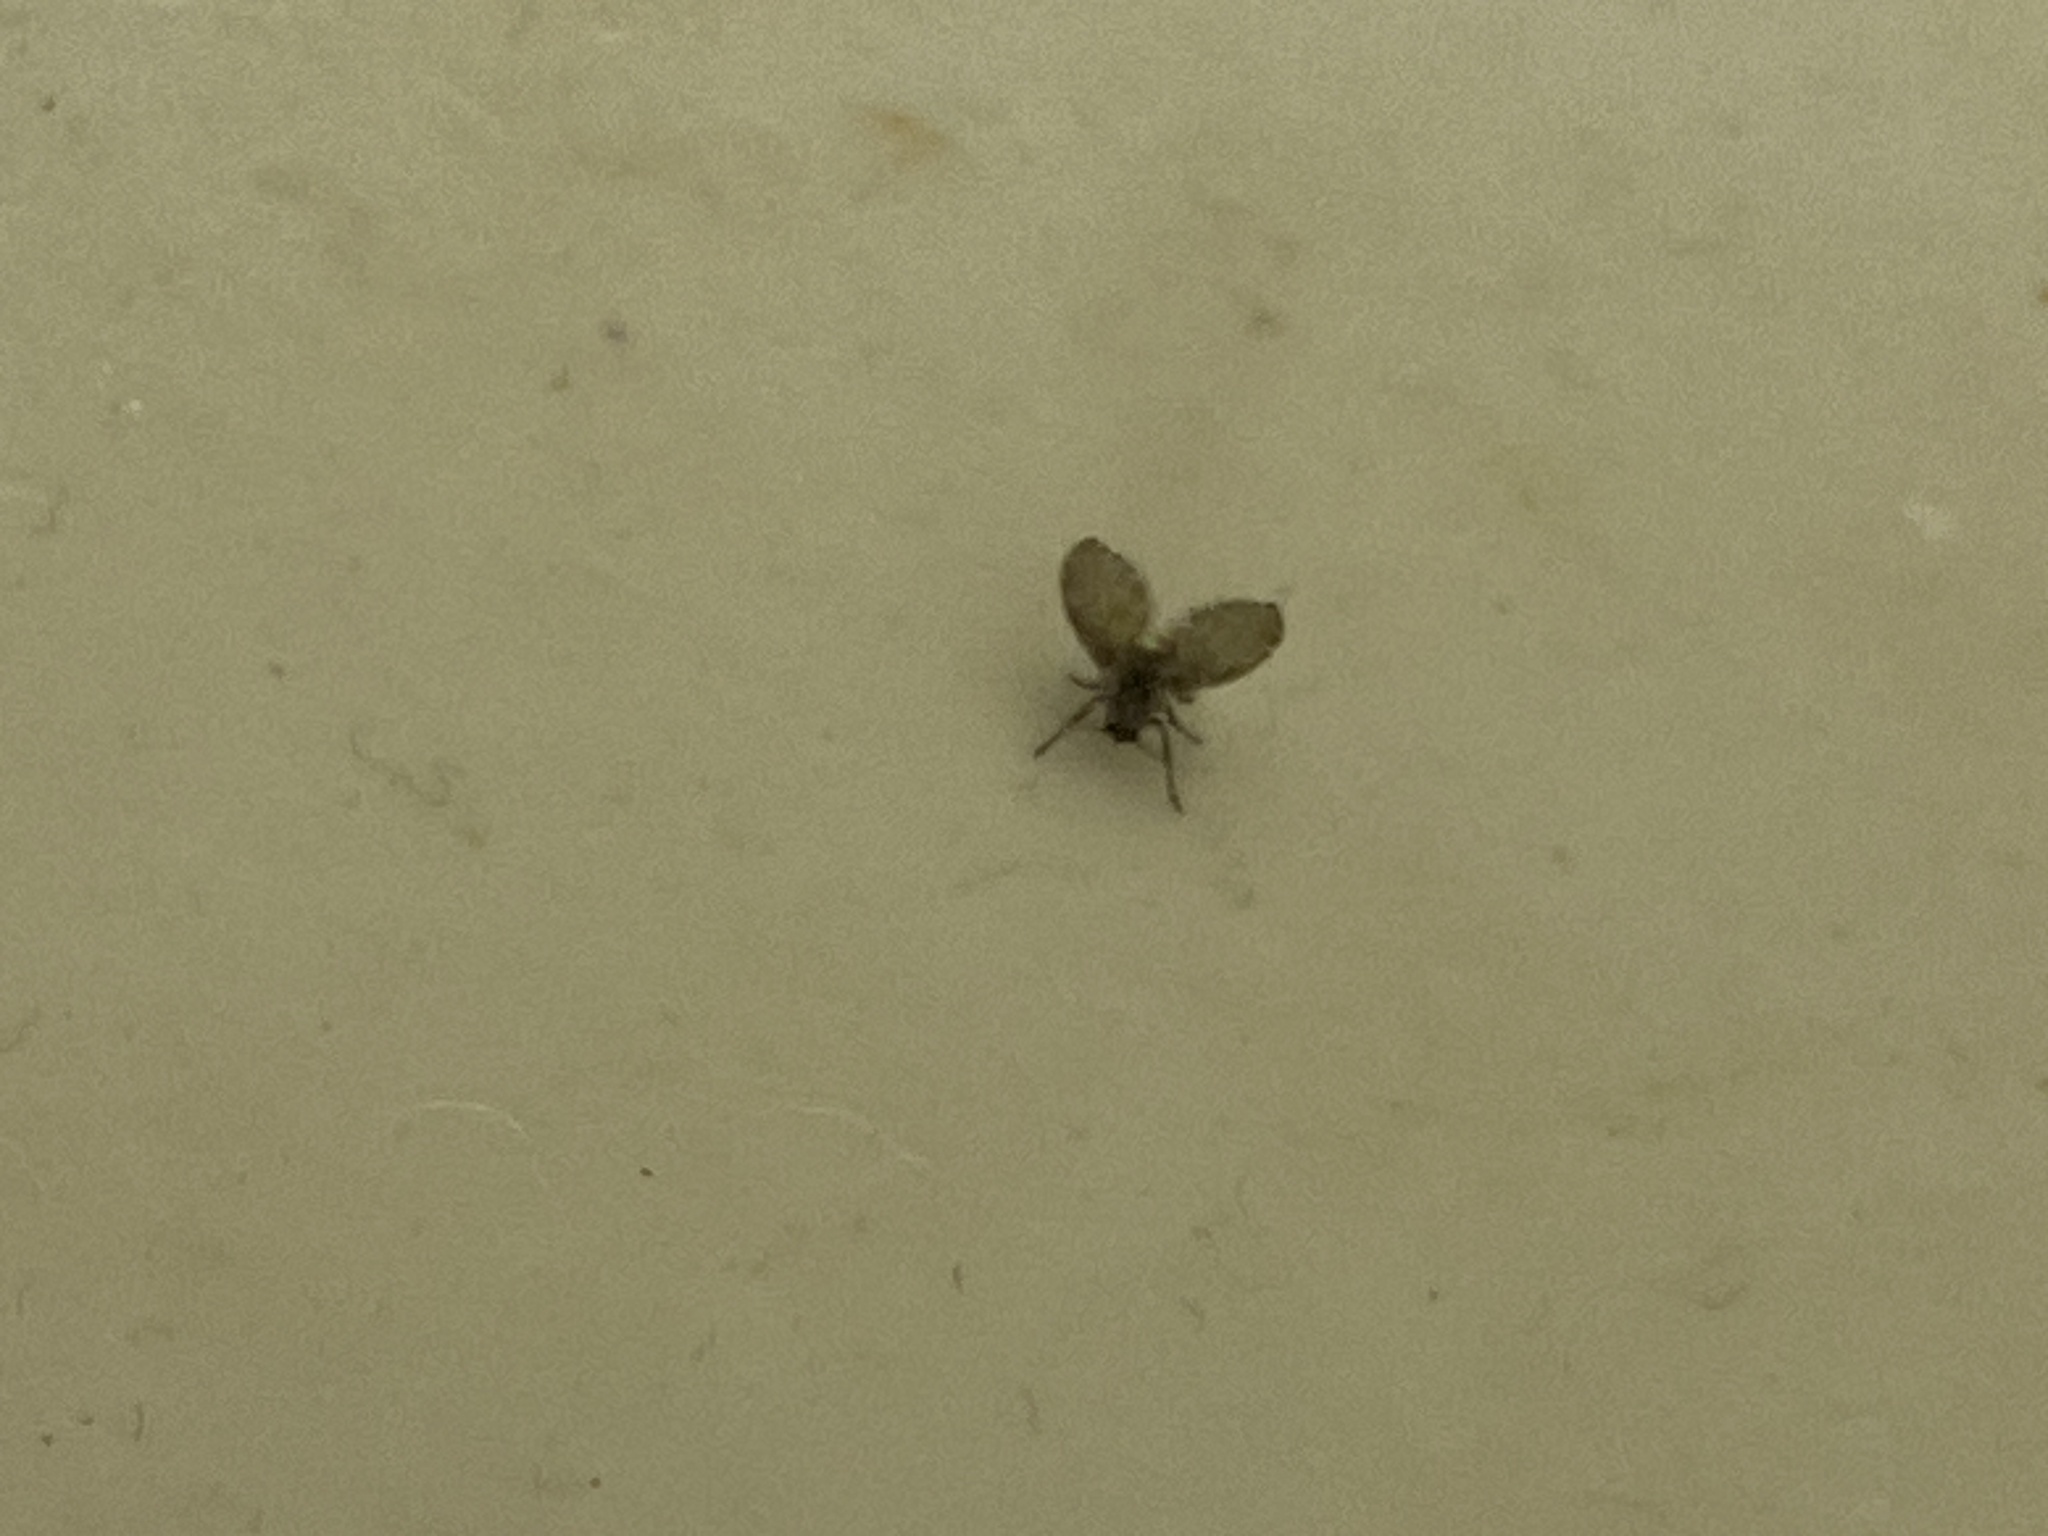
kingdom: Animalia
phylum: Arthropoda
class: Insecta
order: Diptera
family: Psychodidae
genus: Clogmia
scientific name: Clogmia albipunctatus
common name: White-spotted moth fly
